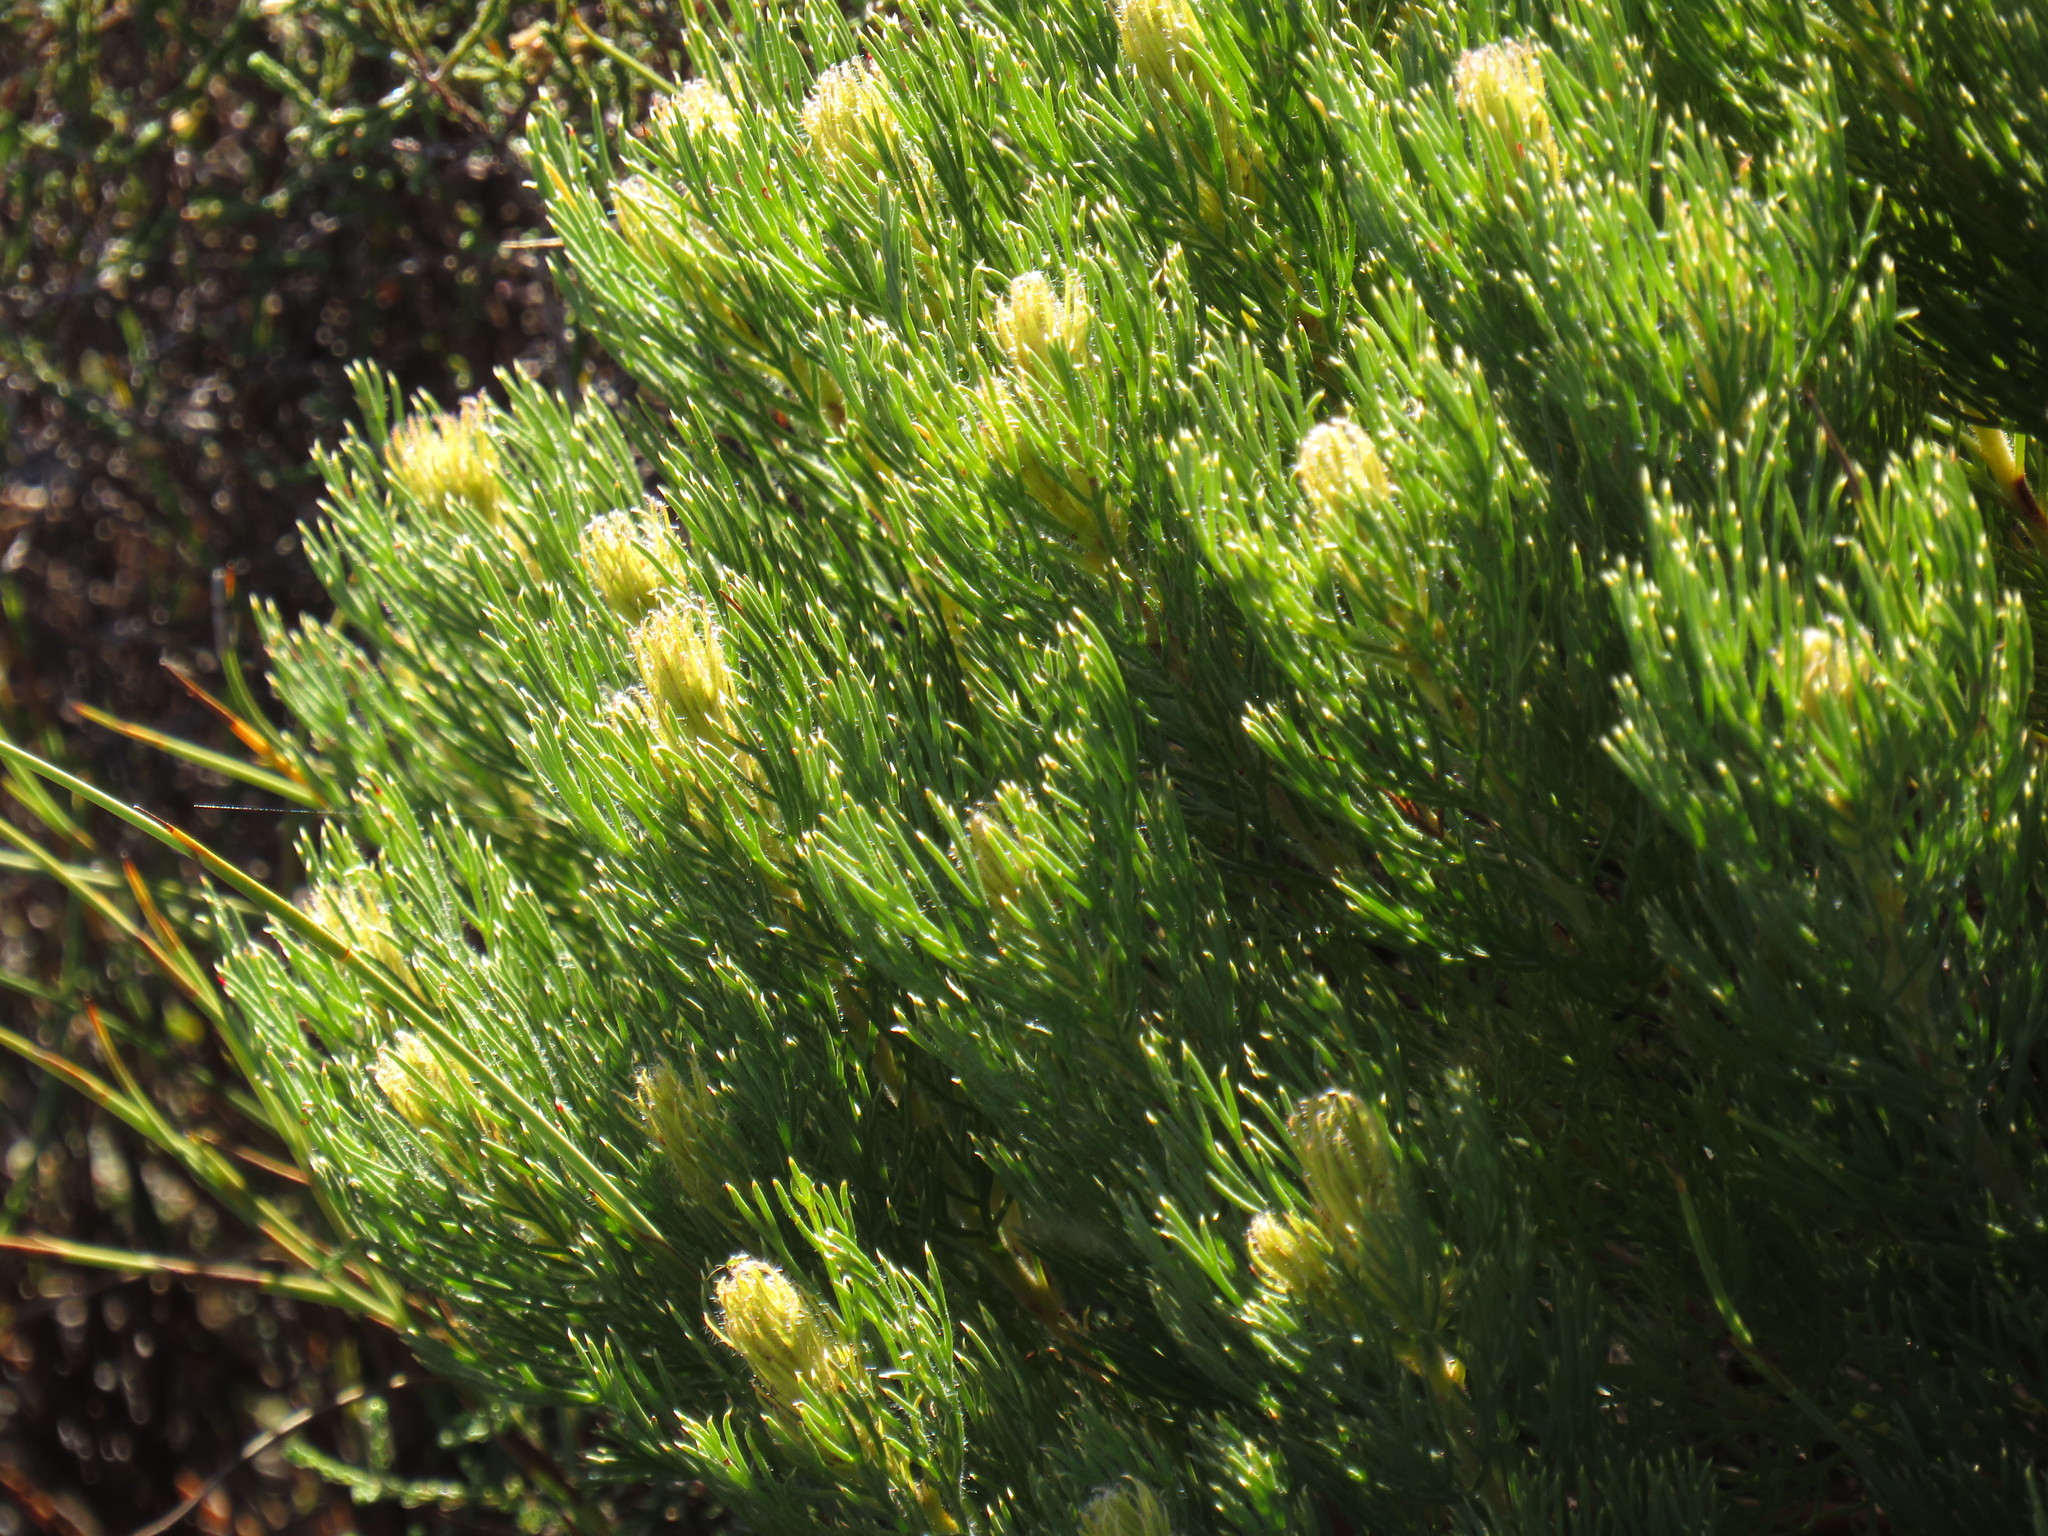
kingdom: Plantae
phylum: Tracheophyta
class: Magnoliopsida
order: Proteales
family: Proteaceae
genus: Serruria
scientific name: Serruria
